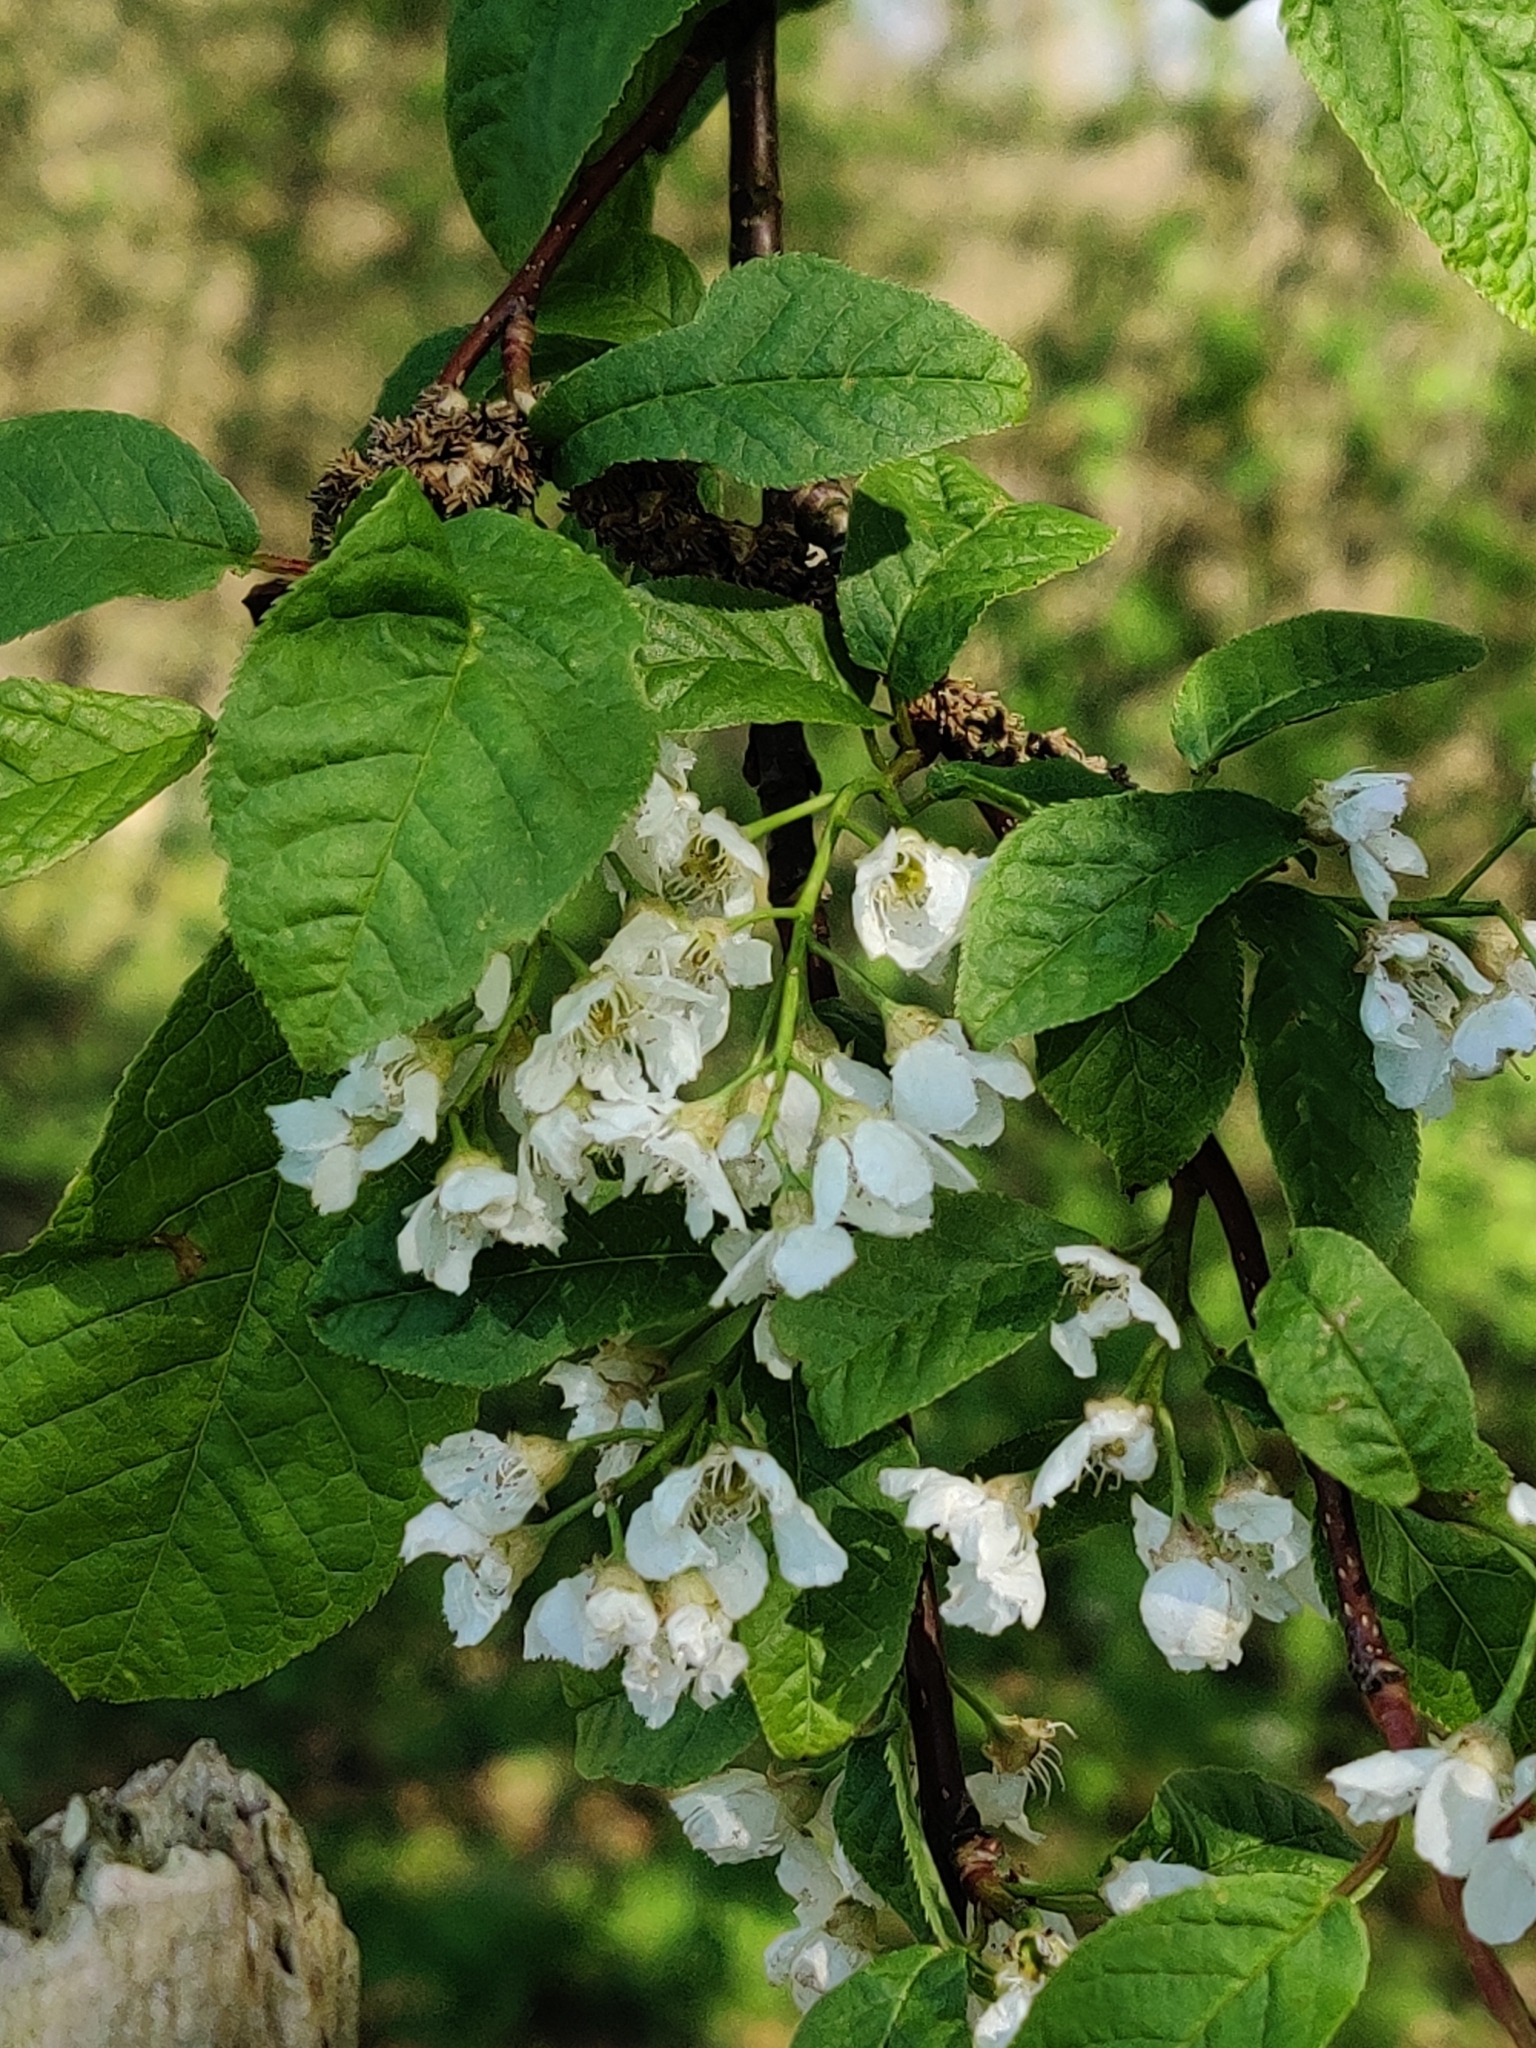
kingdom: Plantae
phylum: Tracheophyta
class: Magnoliopsida
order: Rosales
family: Rosaceae
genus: Prunus
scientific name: Prunus padus
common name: Bird cherry
